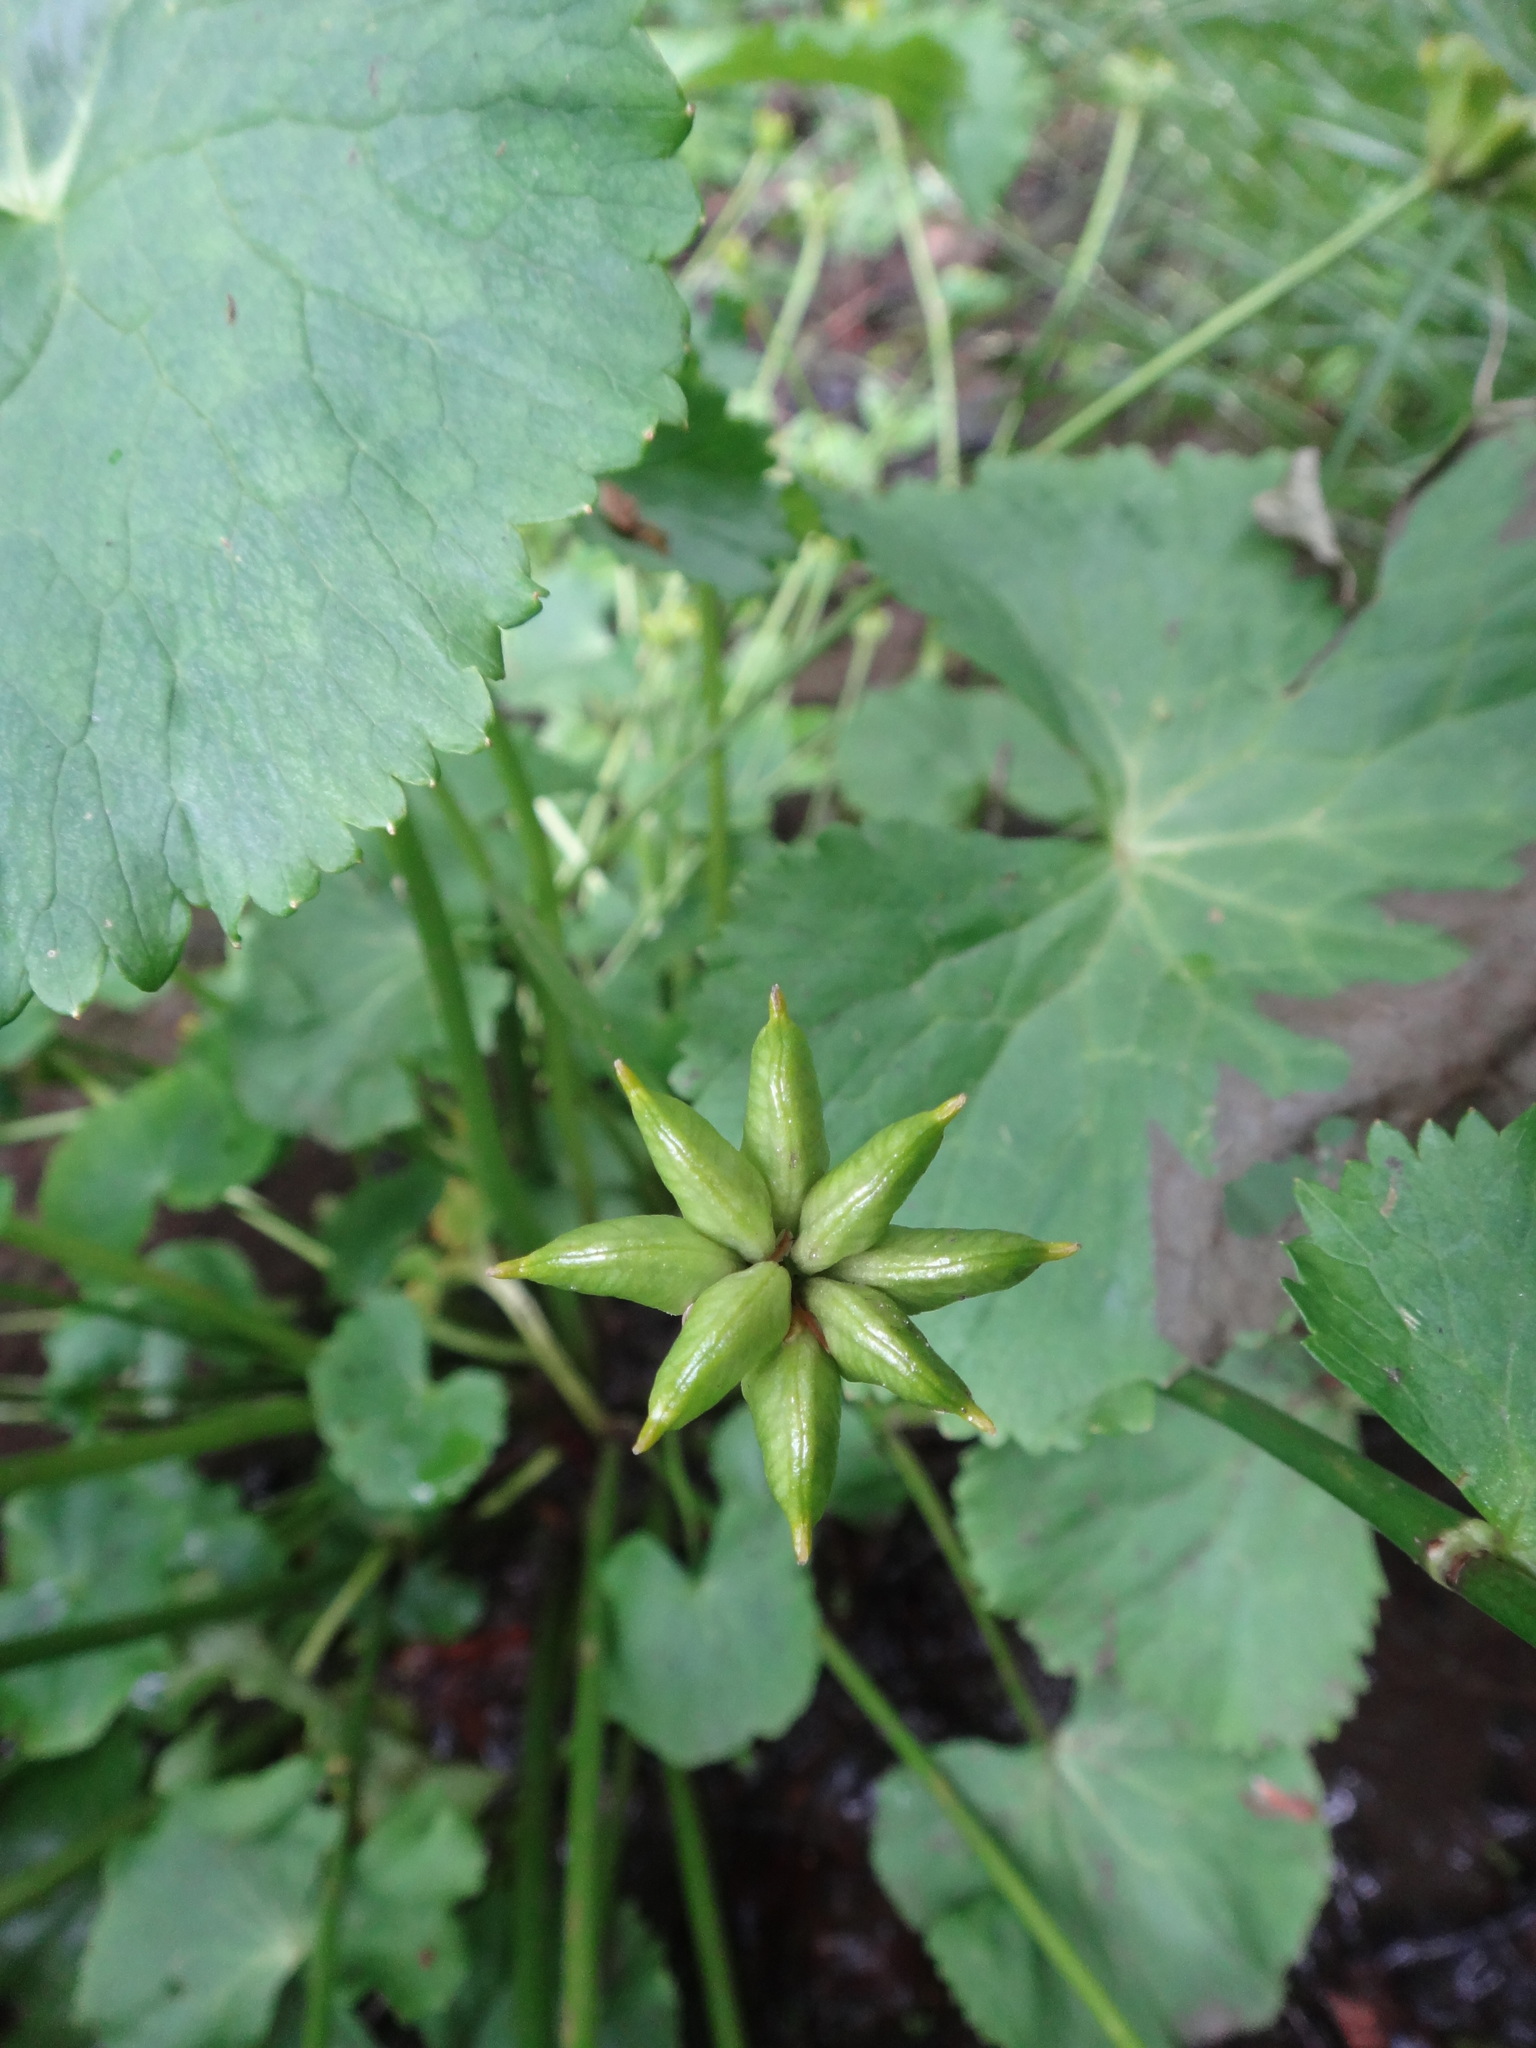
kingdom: Plantae
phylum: Tracheophyta
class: Magnoliopsida
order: Ranunculales
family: Ranunculaceae
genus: Caltha
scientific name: Caltha palustris
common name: Marsh marigold
